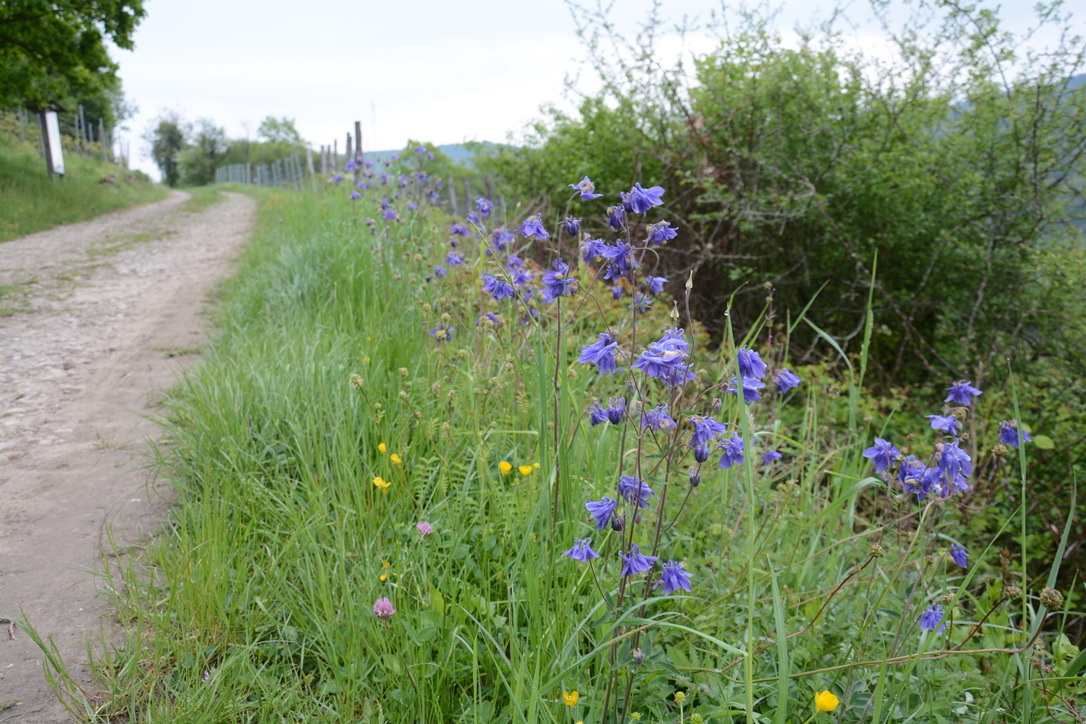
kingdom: Plantae
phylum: Tracheophyta
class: Magnoliopsida
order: Ranunculales
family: Ranunculaceae
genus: Aquilegia
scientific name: Aquilegia vulgaris
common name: Columbine
